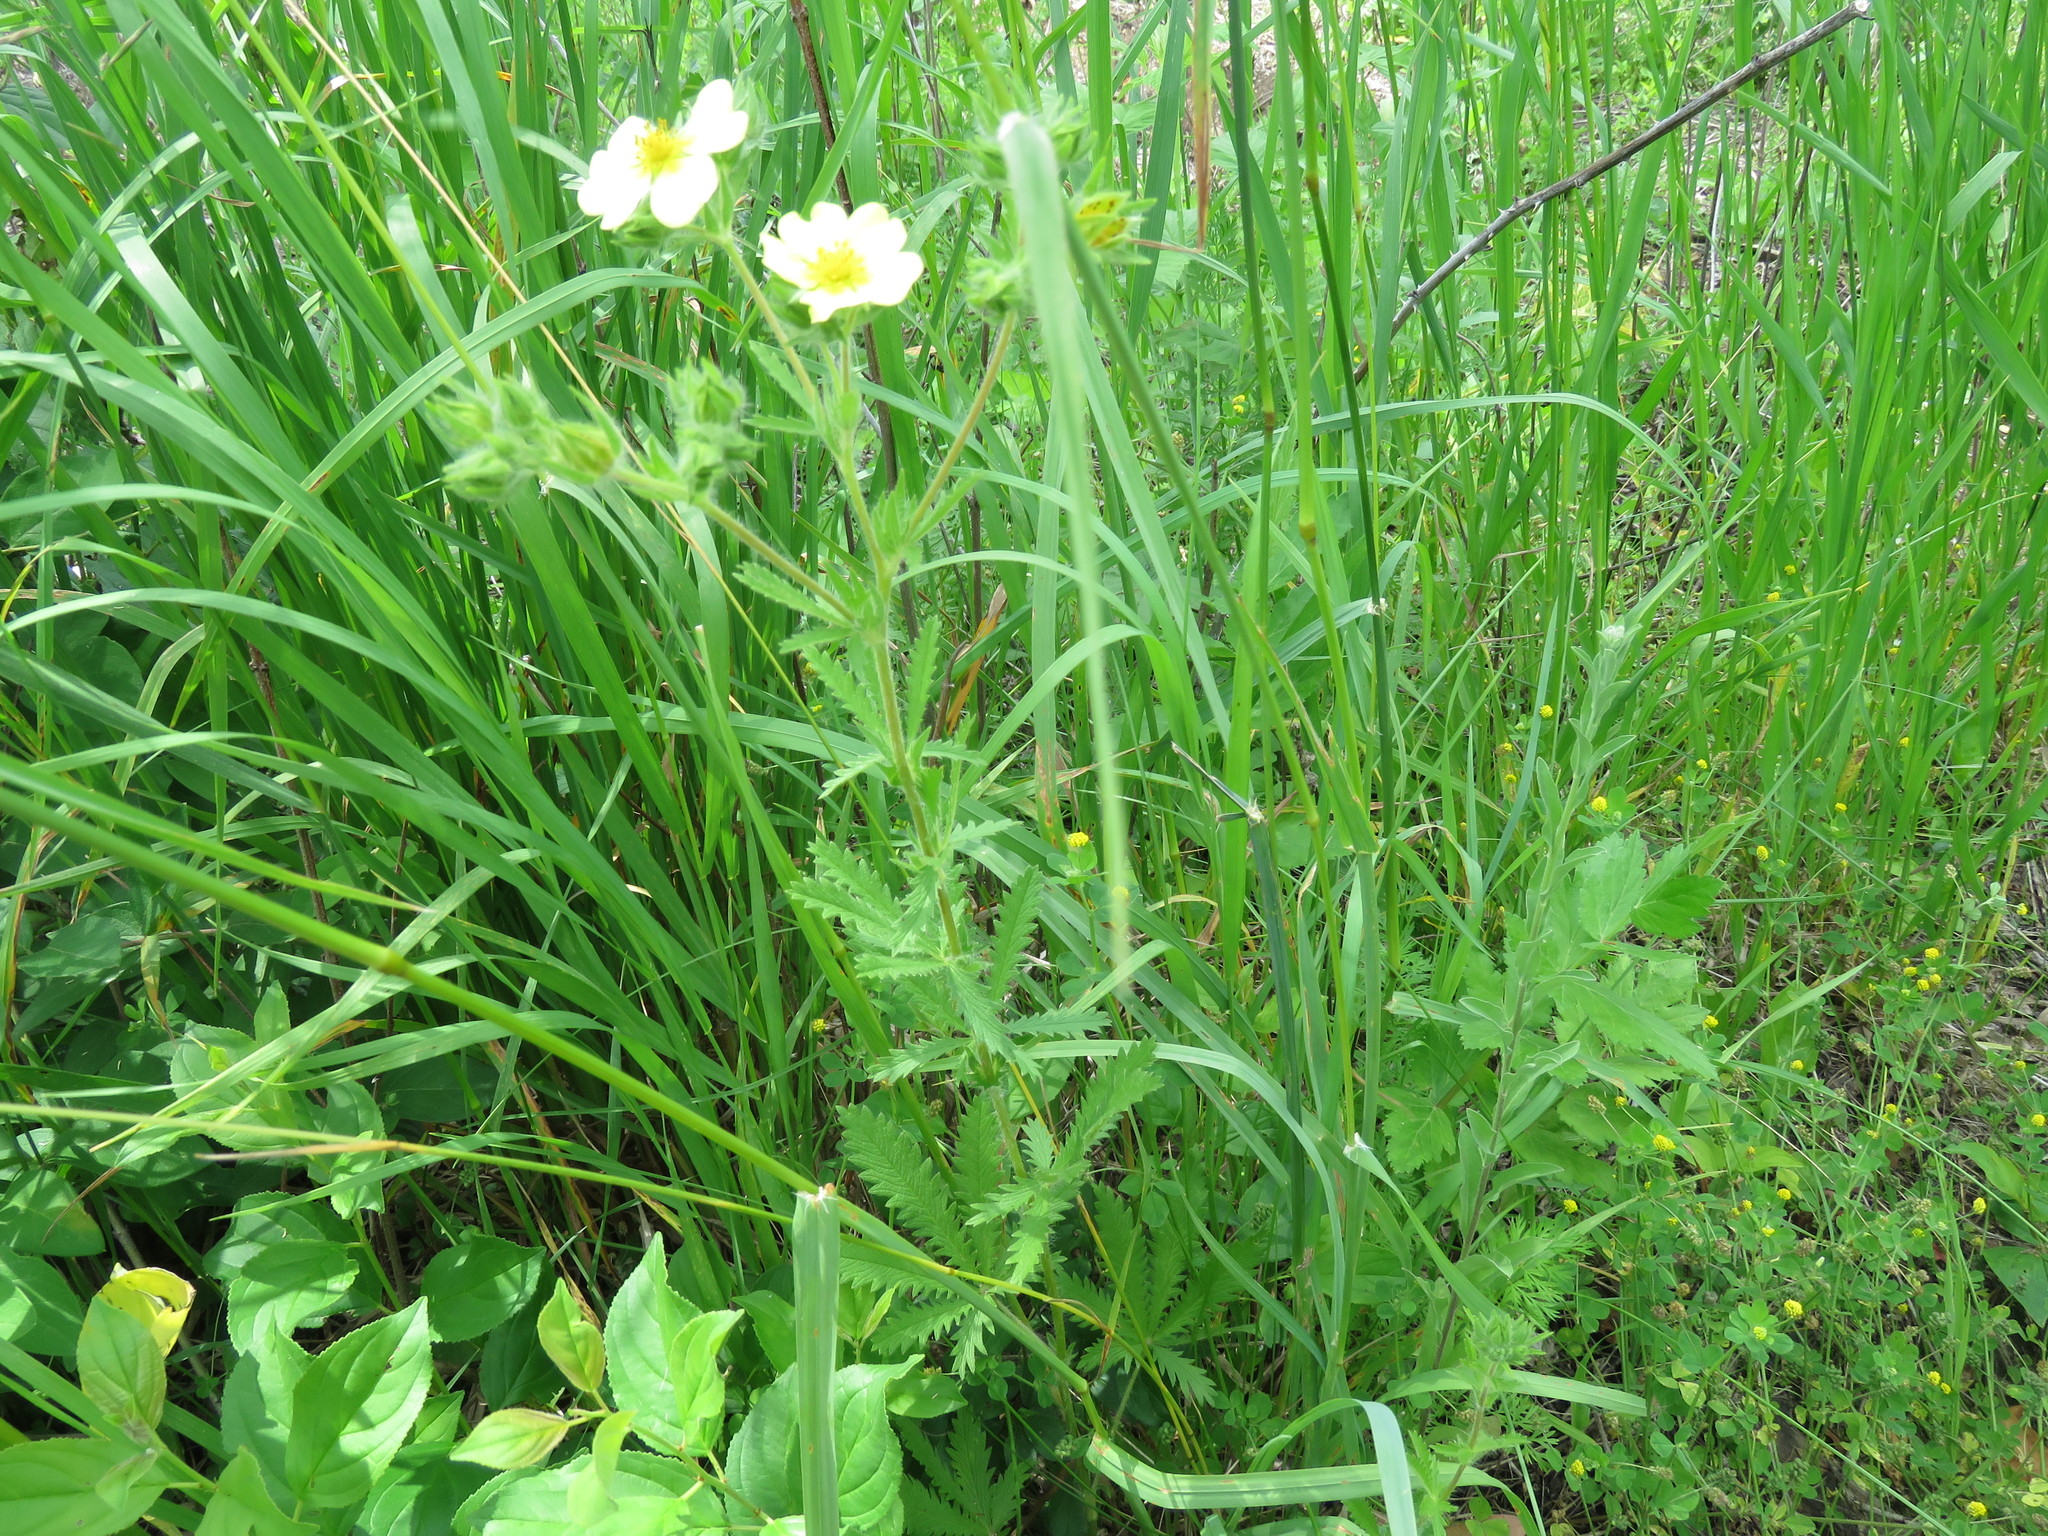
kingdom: Plantae
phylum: Tracheophyta
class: Magnoliopsida
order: Rosales
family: Rosaceae
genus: Potentilla
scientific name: Potentilla recta
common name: Sulphur cinquefoil
